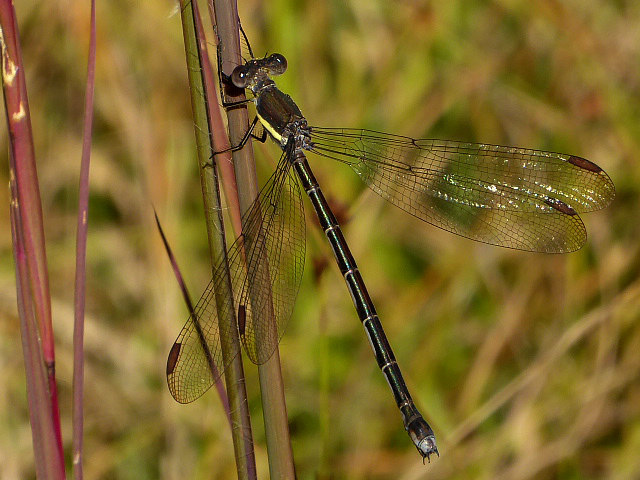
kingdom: Animalia
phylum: Arthropoda
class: Insecta
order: Odonata
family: Lestidae
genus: Archilestes
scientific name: Archilestes grandis
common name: Great spreadwing
